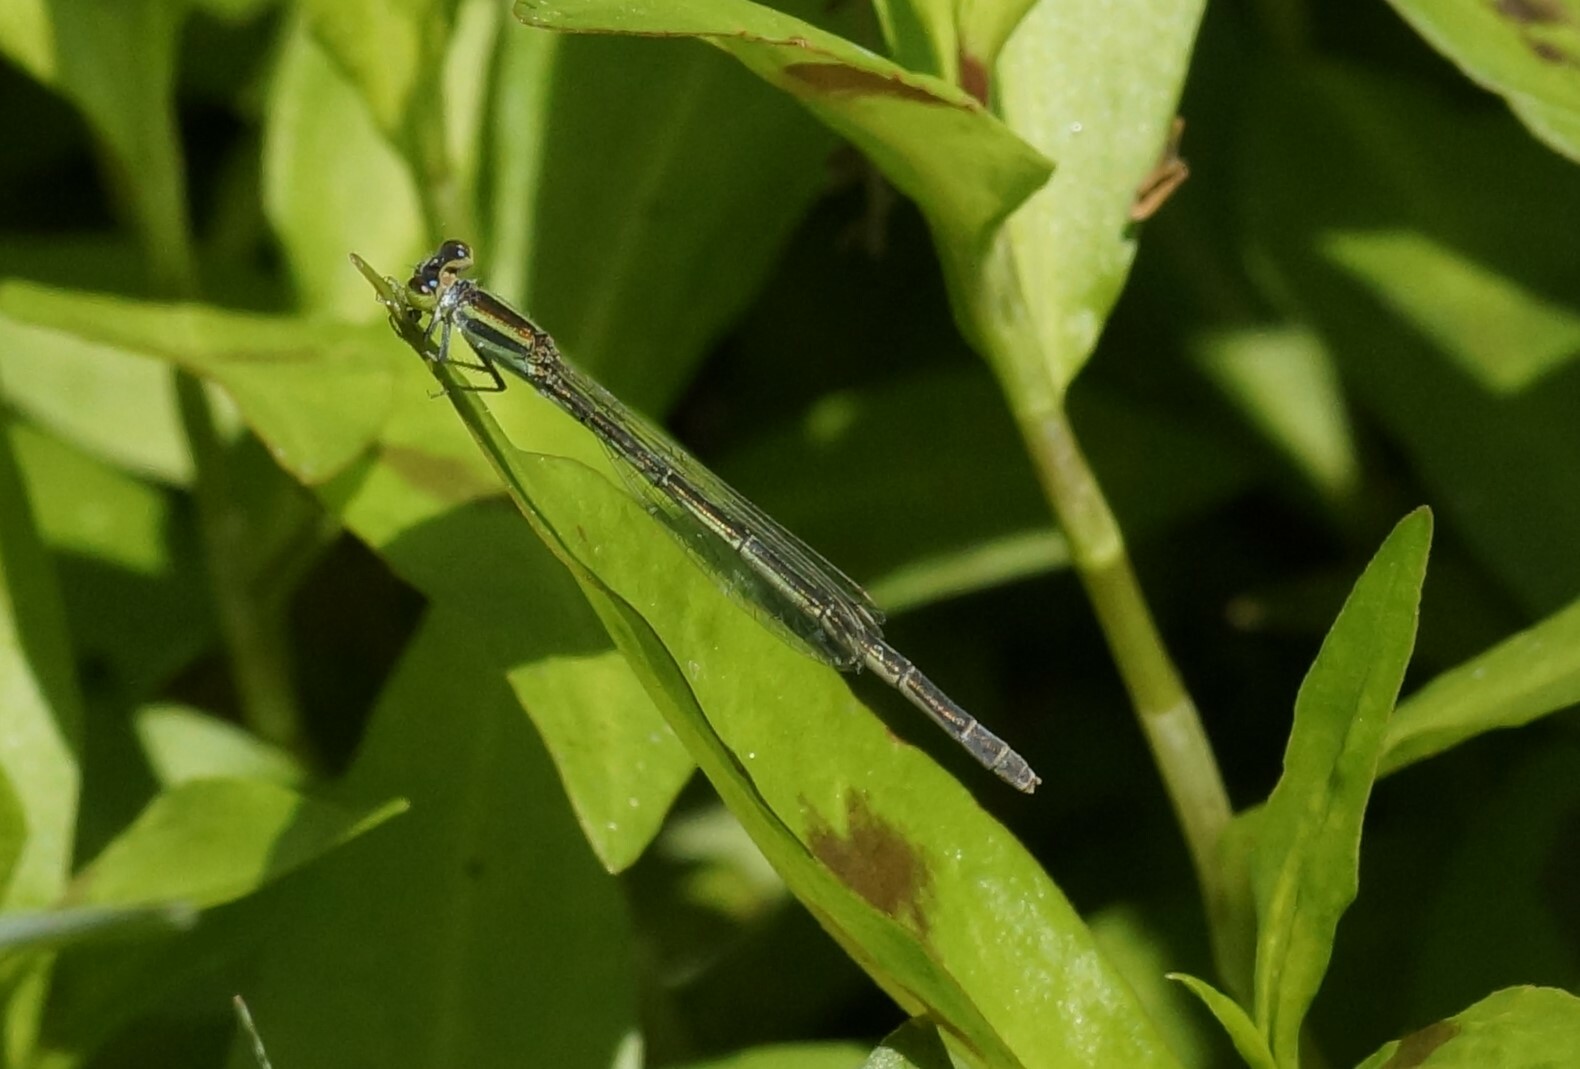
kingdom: Animalia
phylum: Arthropoda
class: Insecta
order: Odonata
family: Coenagrionidae
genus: Ischnura
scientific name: Ischnura aurora
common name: Gossamer damselfly
